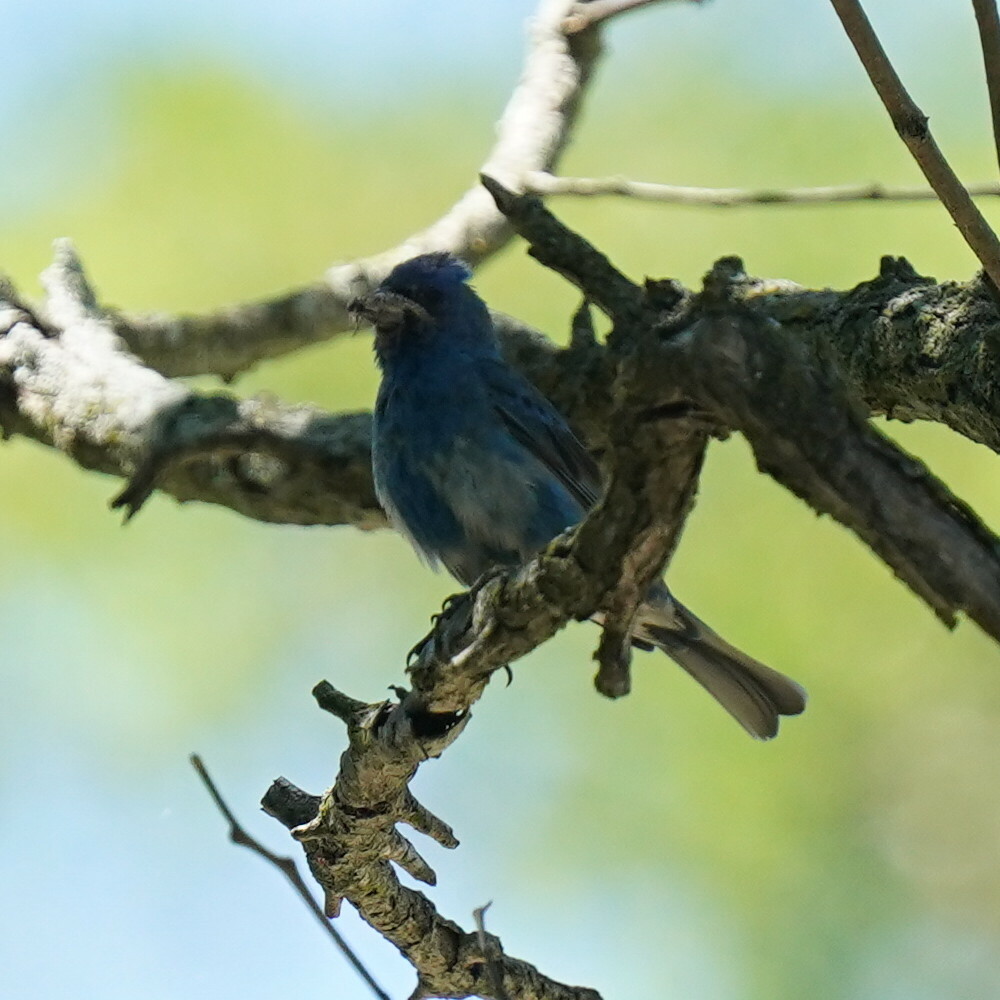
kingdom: Animalia
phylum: Chordata
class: Aves
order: Passeriformes
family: Cardinalidae
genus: Passerina
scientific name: Passerina cyanea
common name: Indigo bunting
